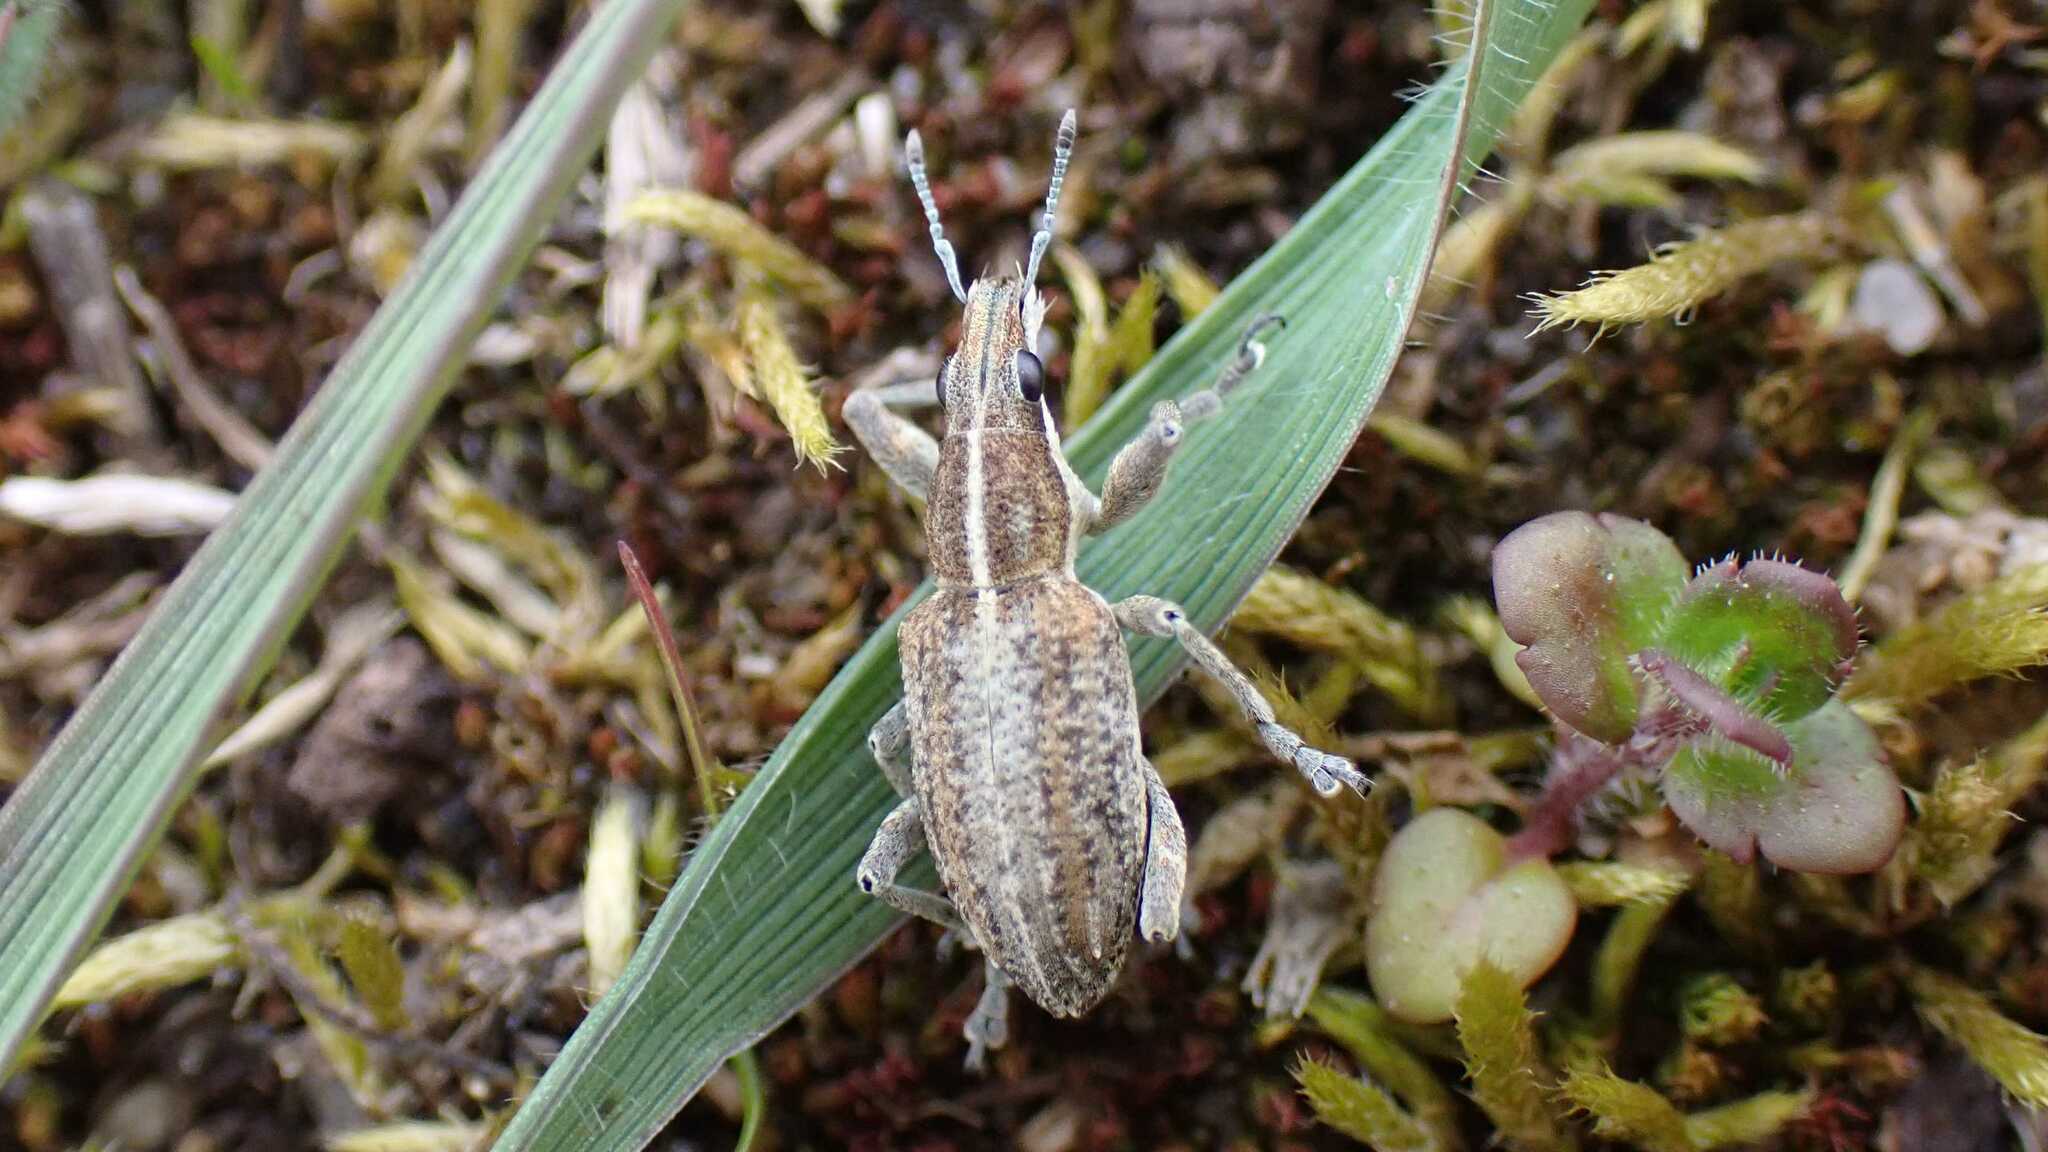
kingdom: Animalia
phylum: Arthropoda
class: Insecta
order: Coleoptera
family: Curculionidae
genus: Charagmus
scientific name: Charagmus gressorius
